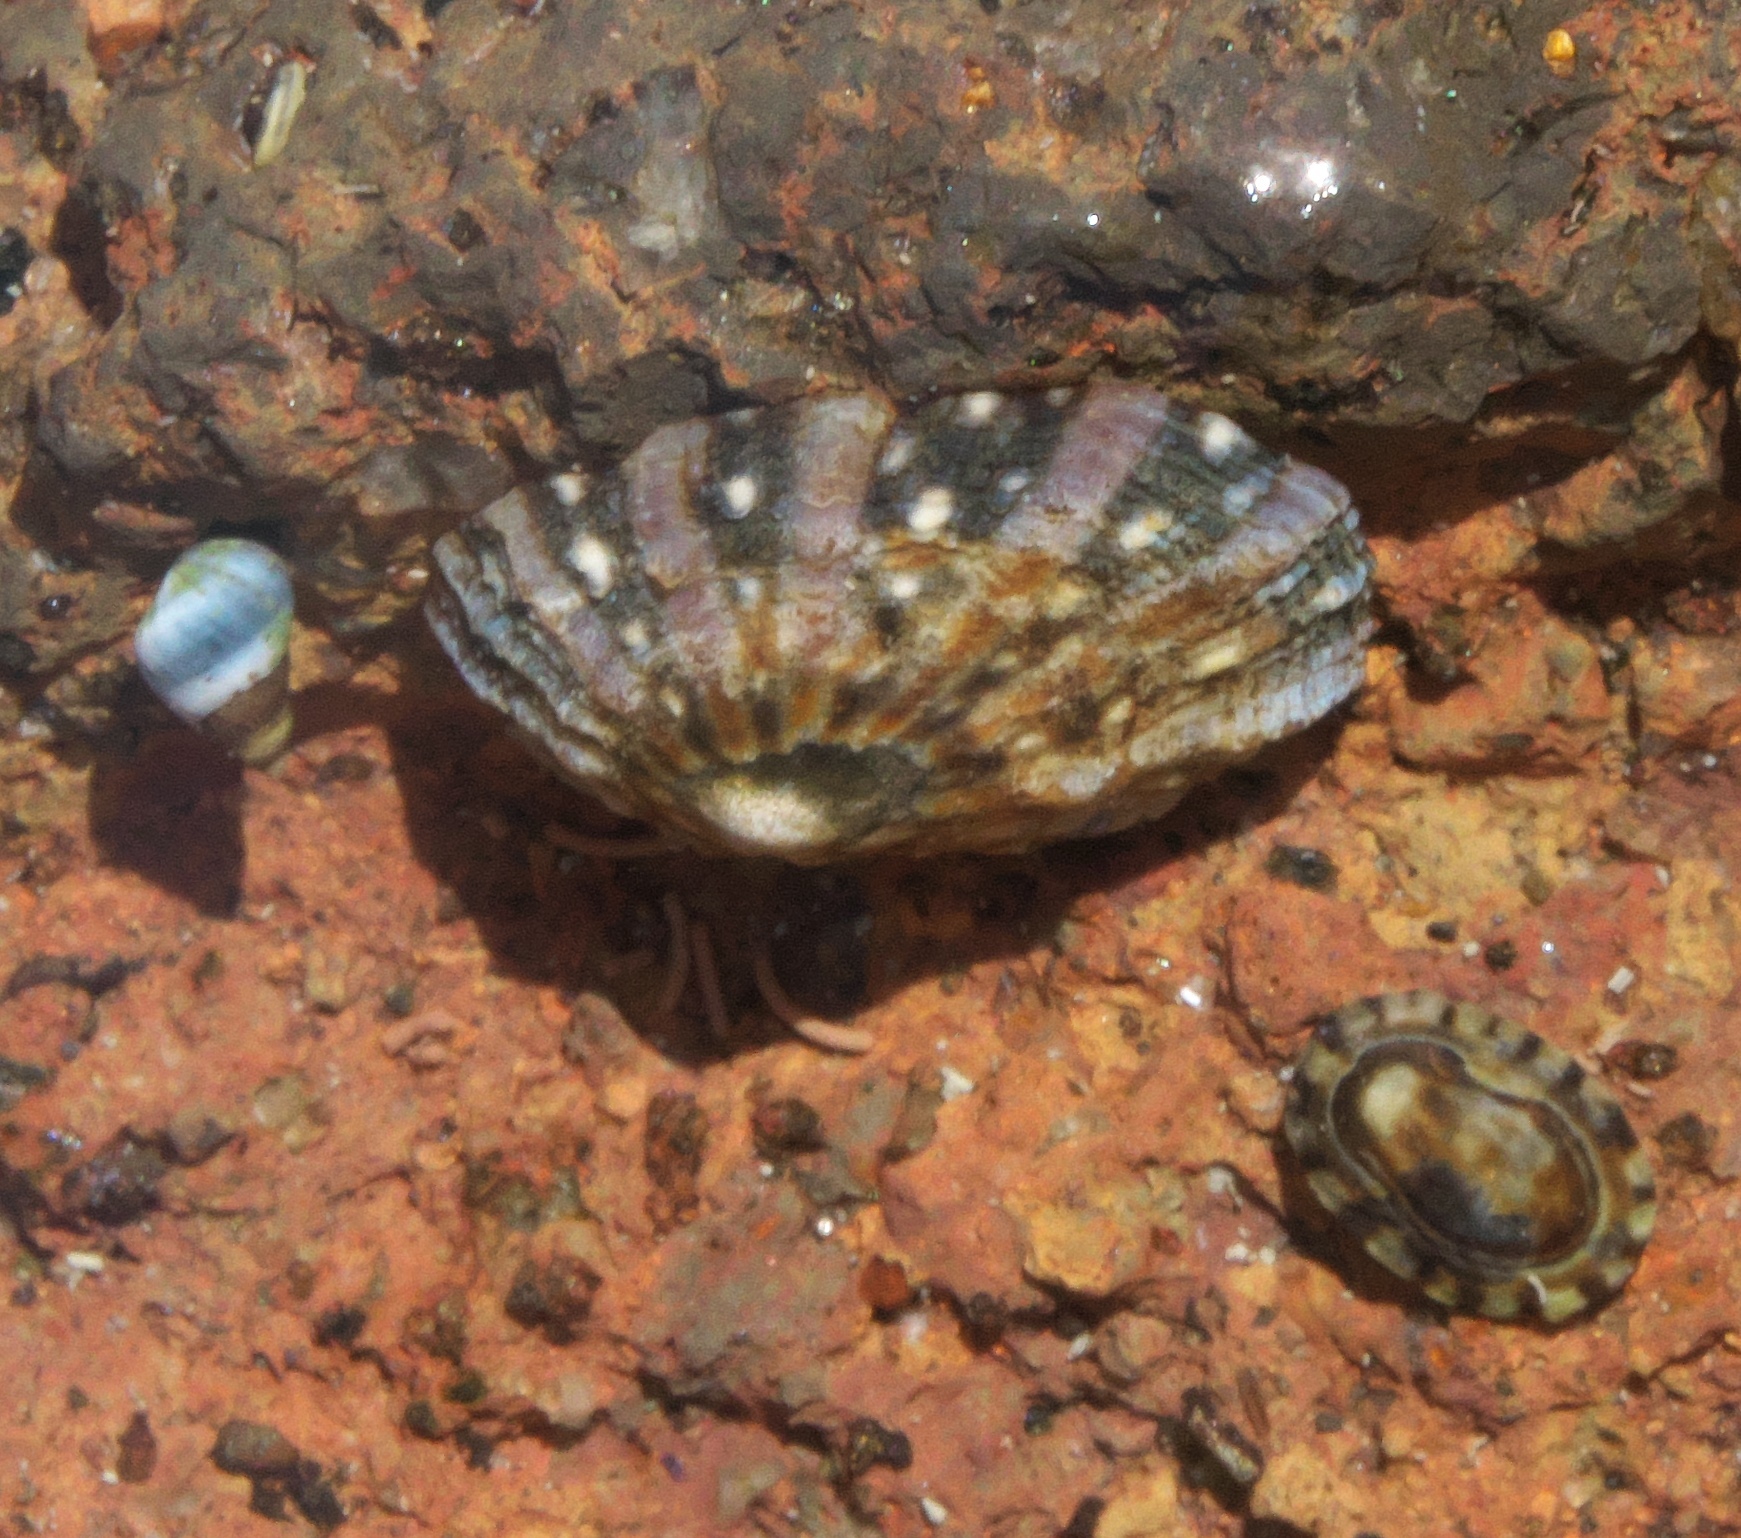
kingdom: Animalia
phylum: Mollusca
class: Gastropoda
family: Nacellidae
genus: Cellana
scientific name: Cellana ornata
